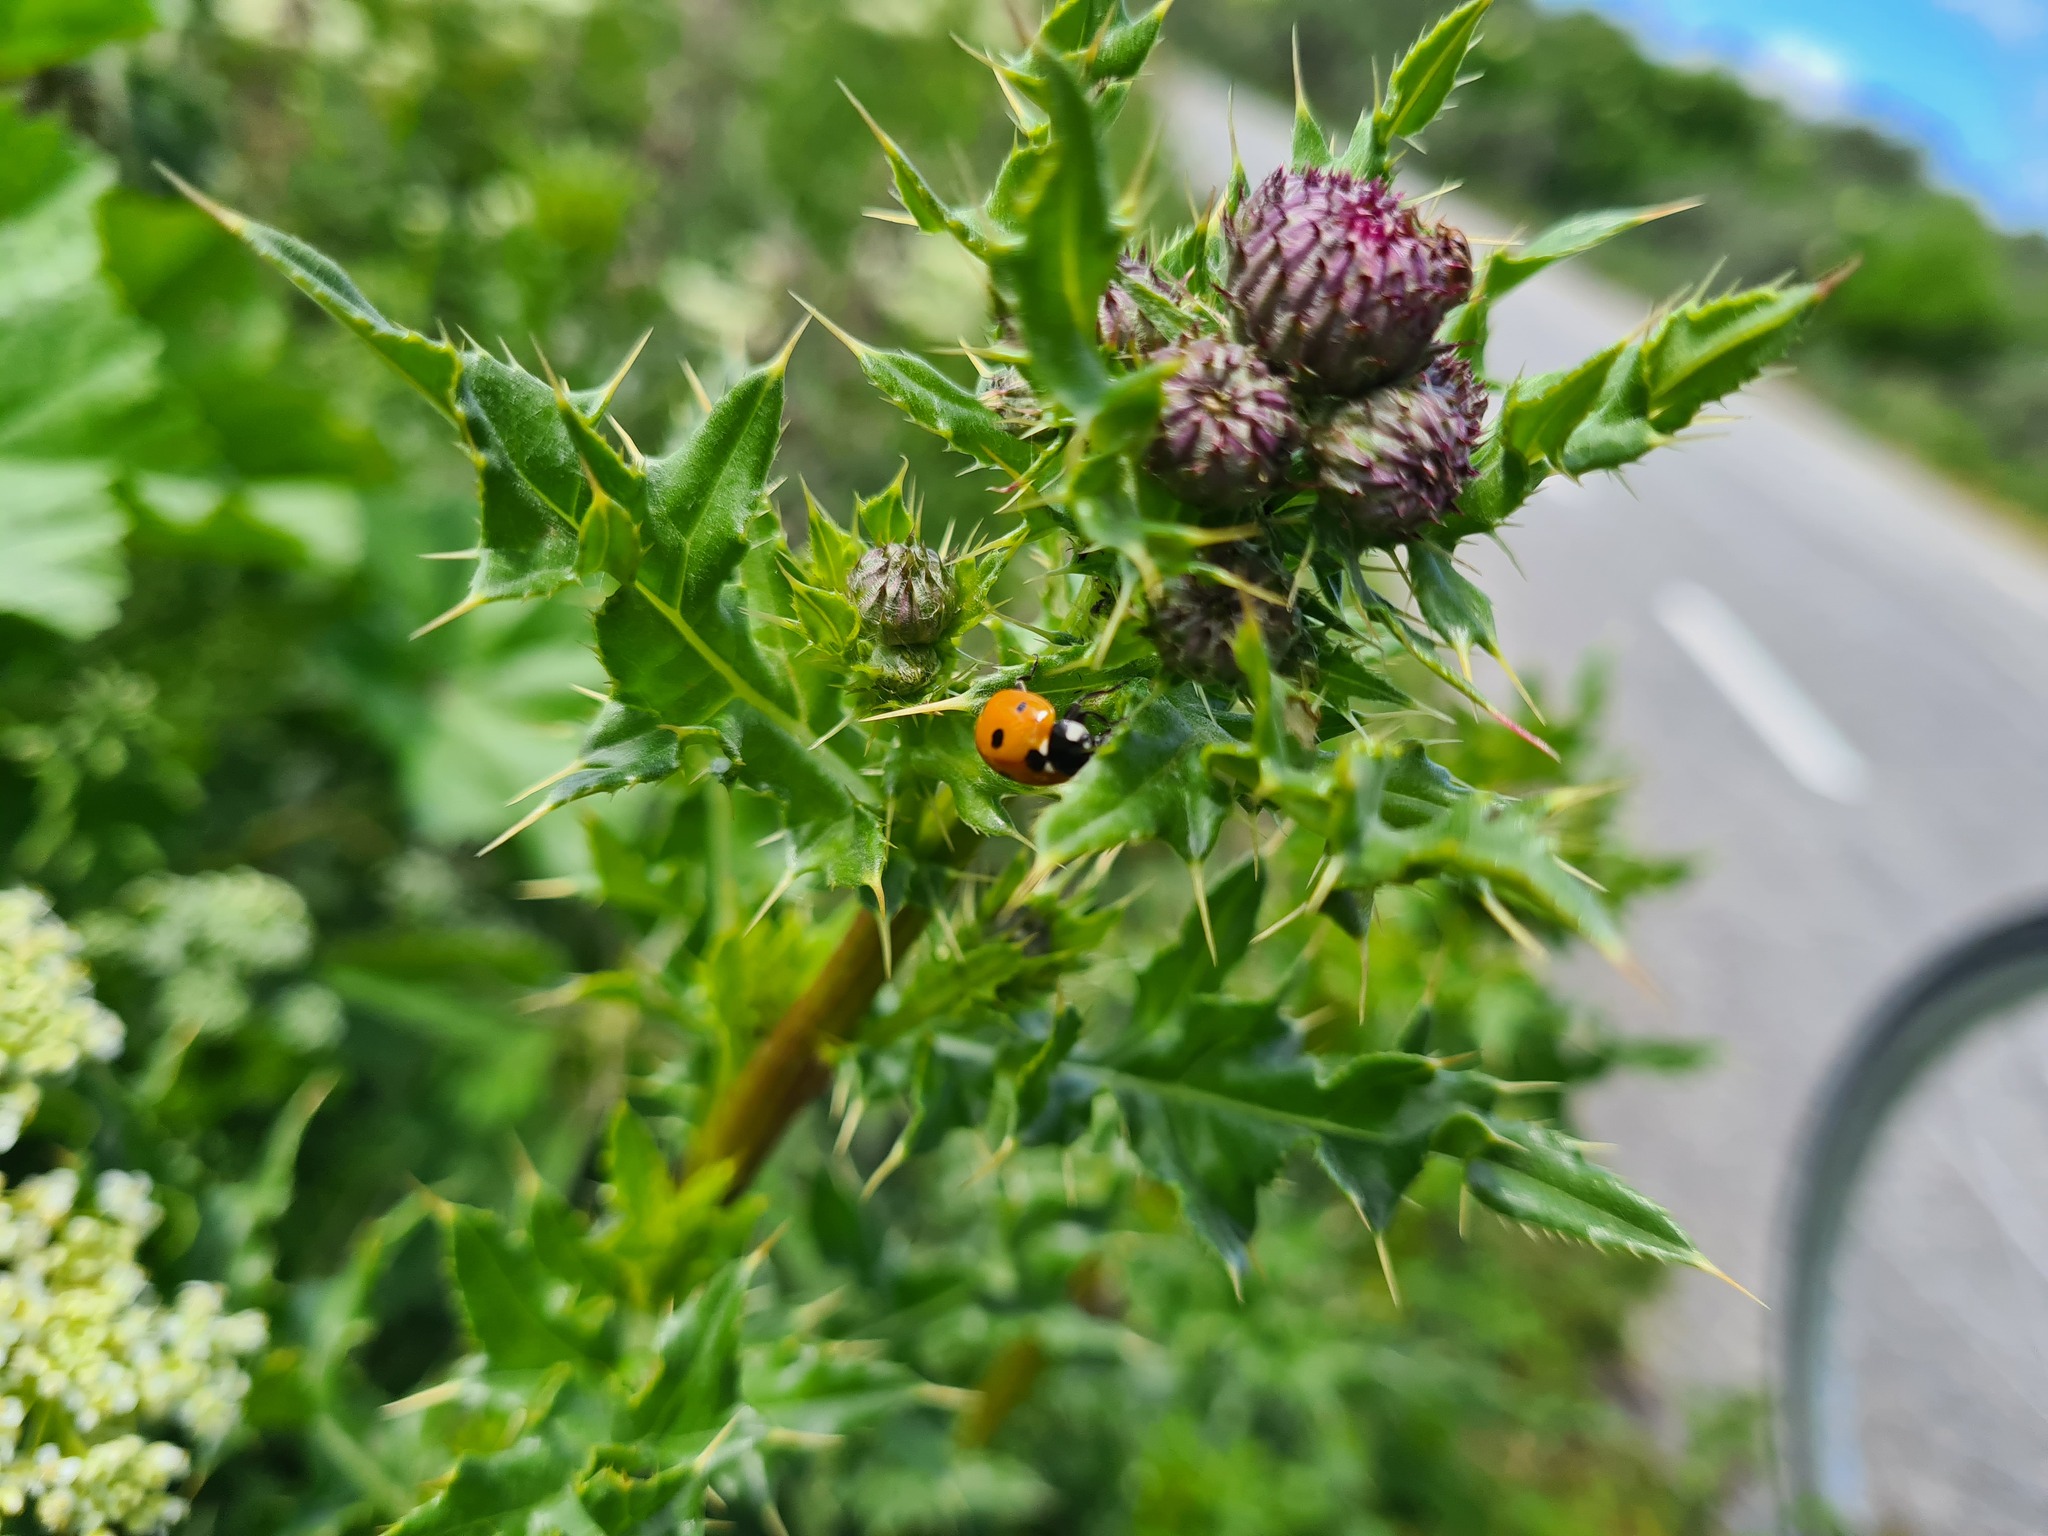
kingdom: Animalia
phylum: Arthropoda
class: Insecta
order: Coleoptera
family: Coccinellidae
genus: Coccinella
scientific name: Coccinella septempunctata
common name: Sevenspotted lady beetle
